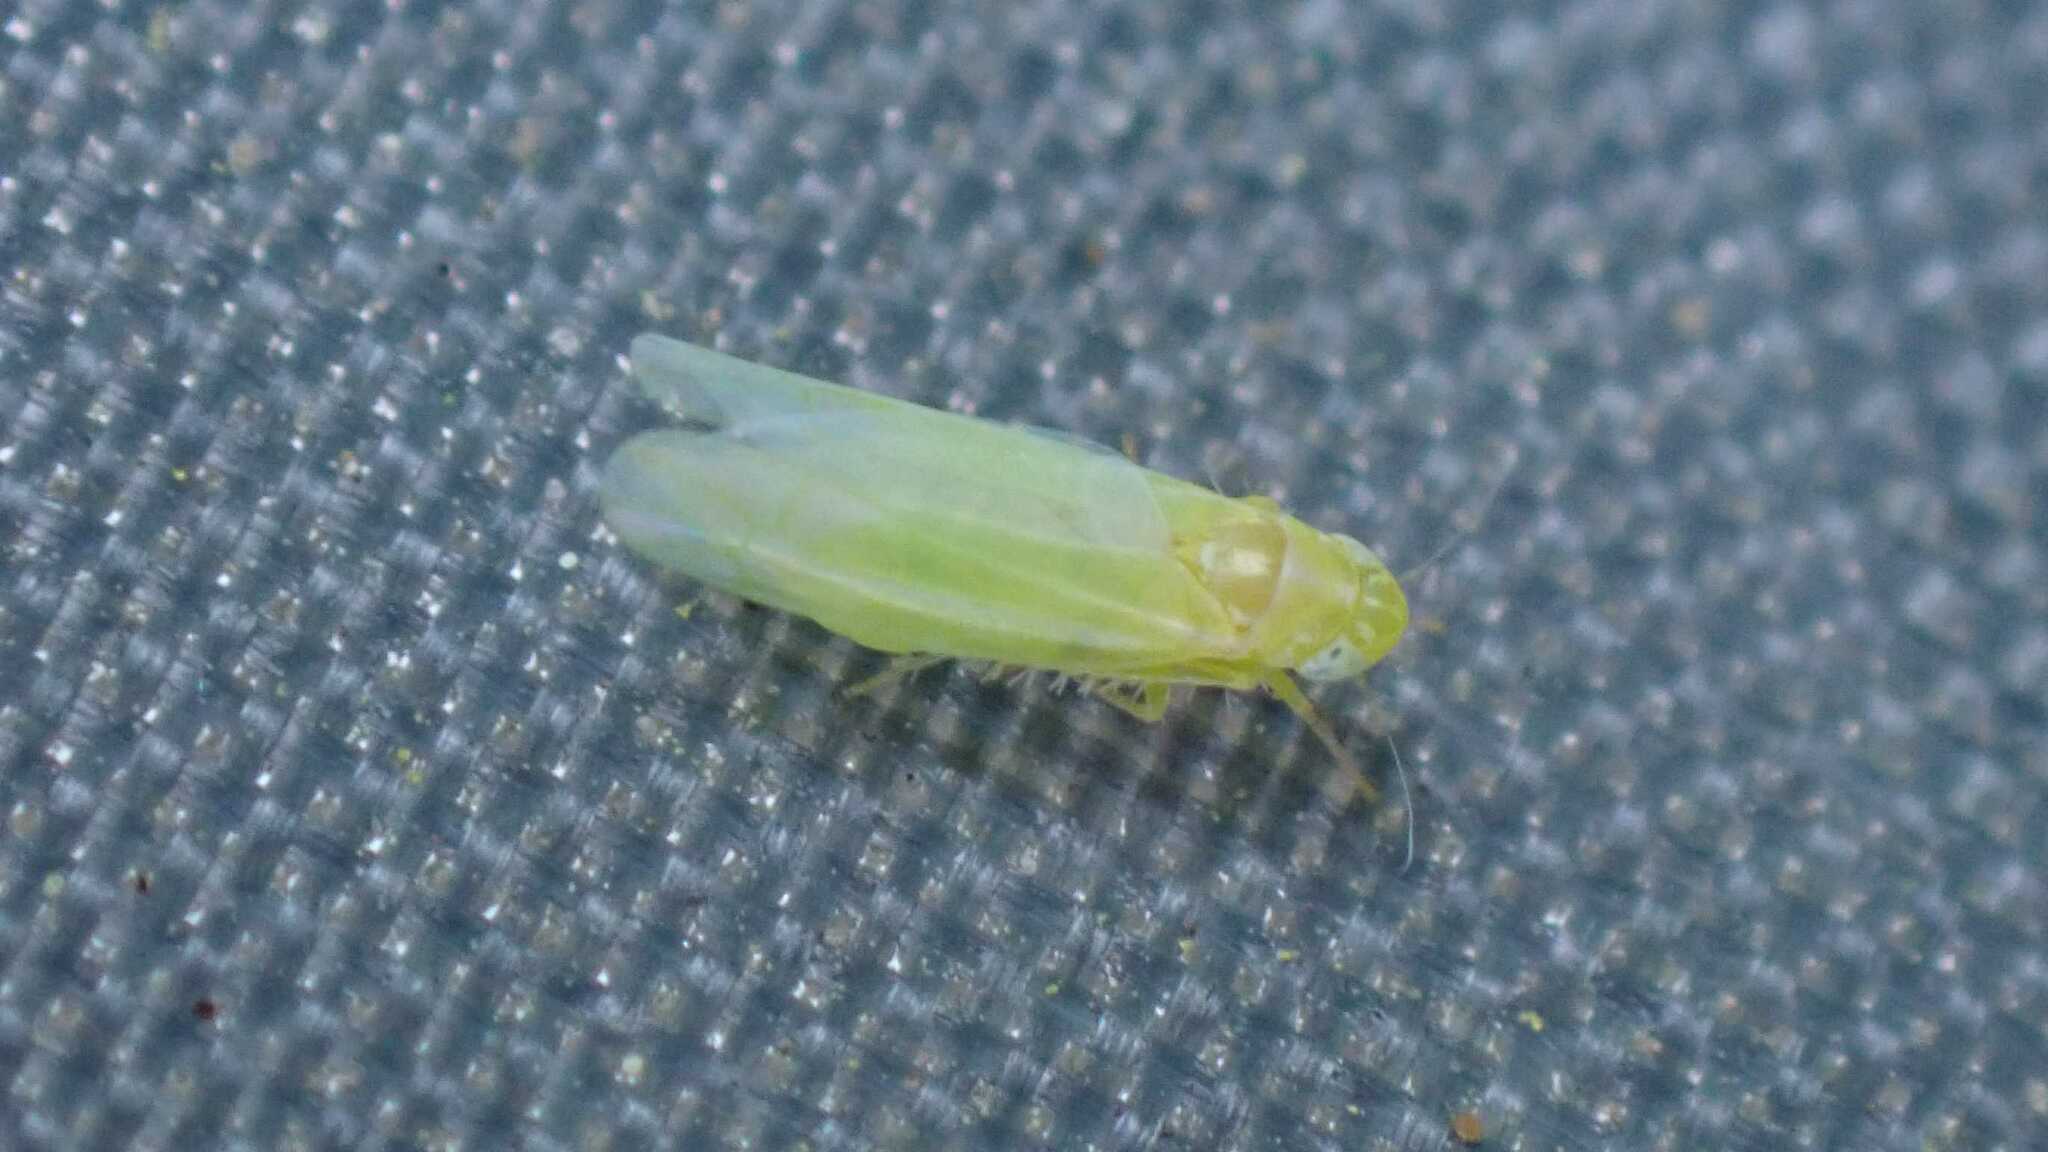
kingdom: Animalia
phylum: Arthropoda
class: Insecta
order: Hemiptera
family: Cicadellidae
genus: Hebata
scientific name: Hebata vitis
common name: The smaller green leafhopper
